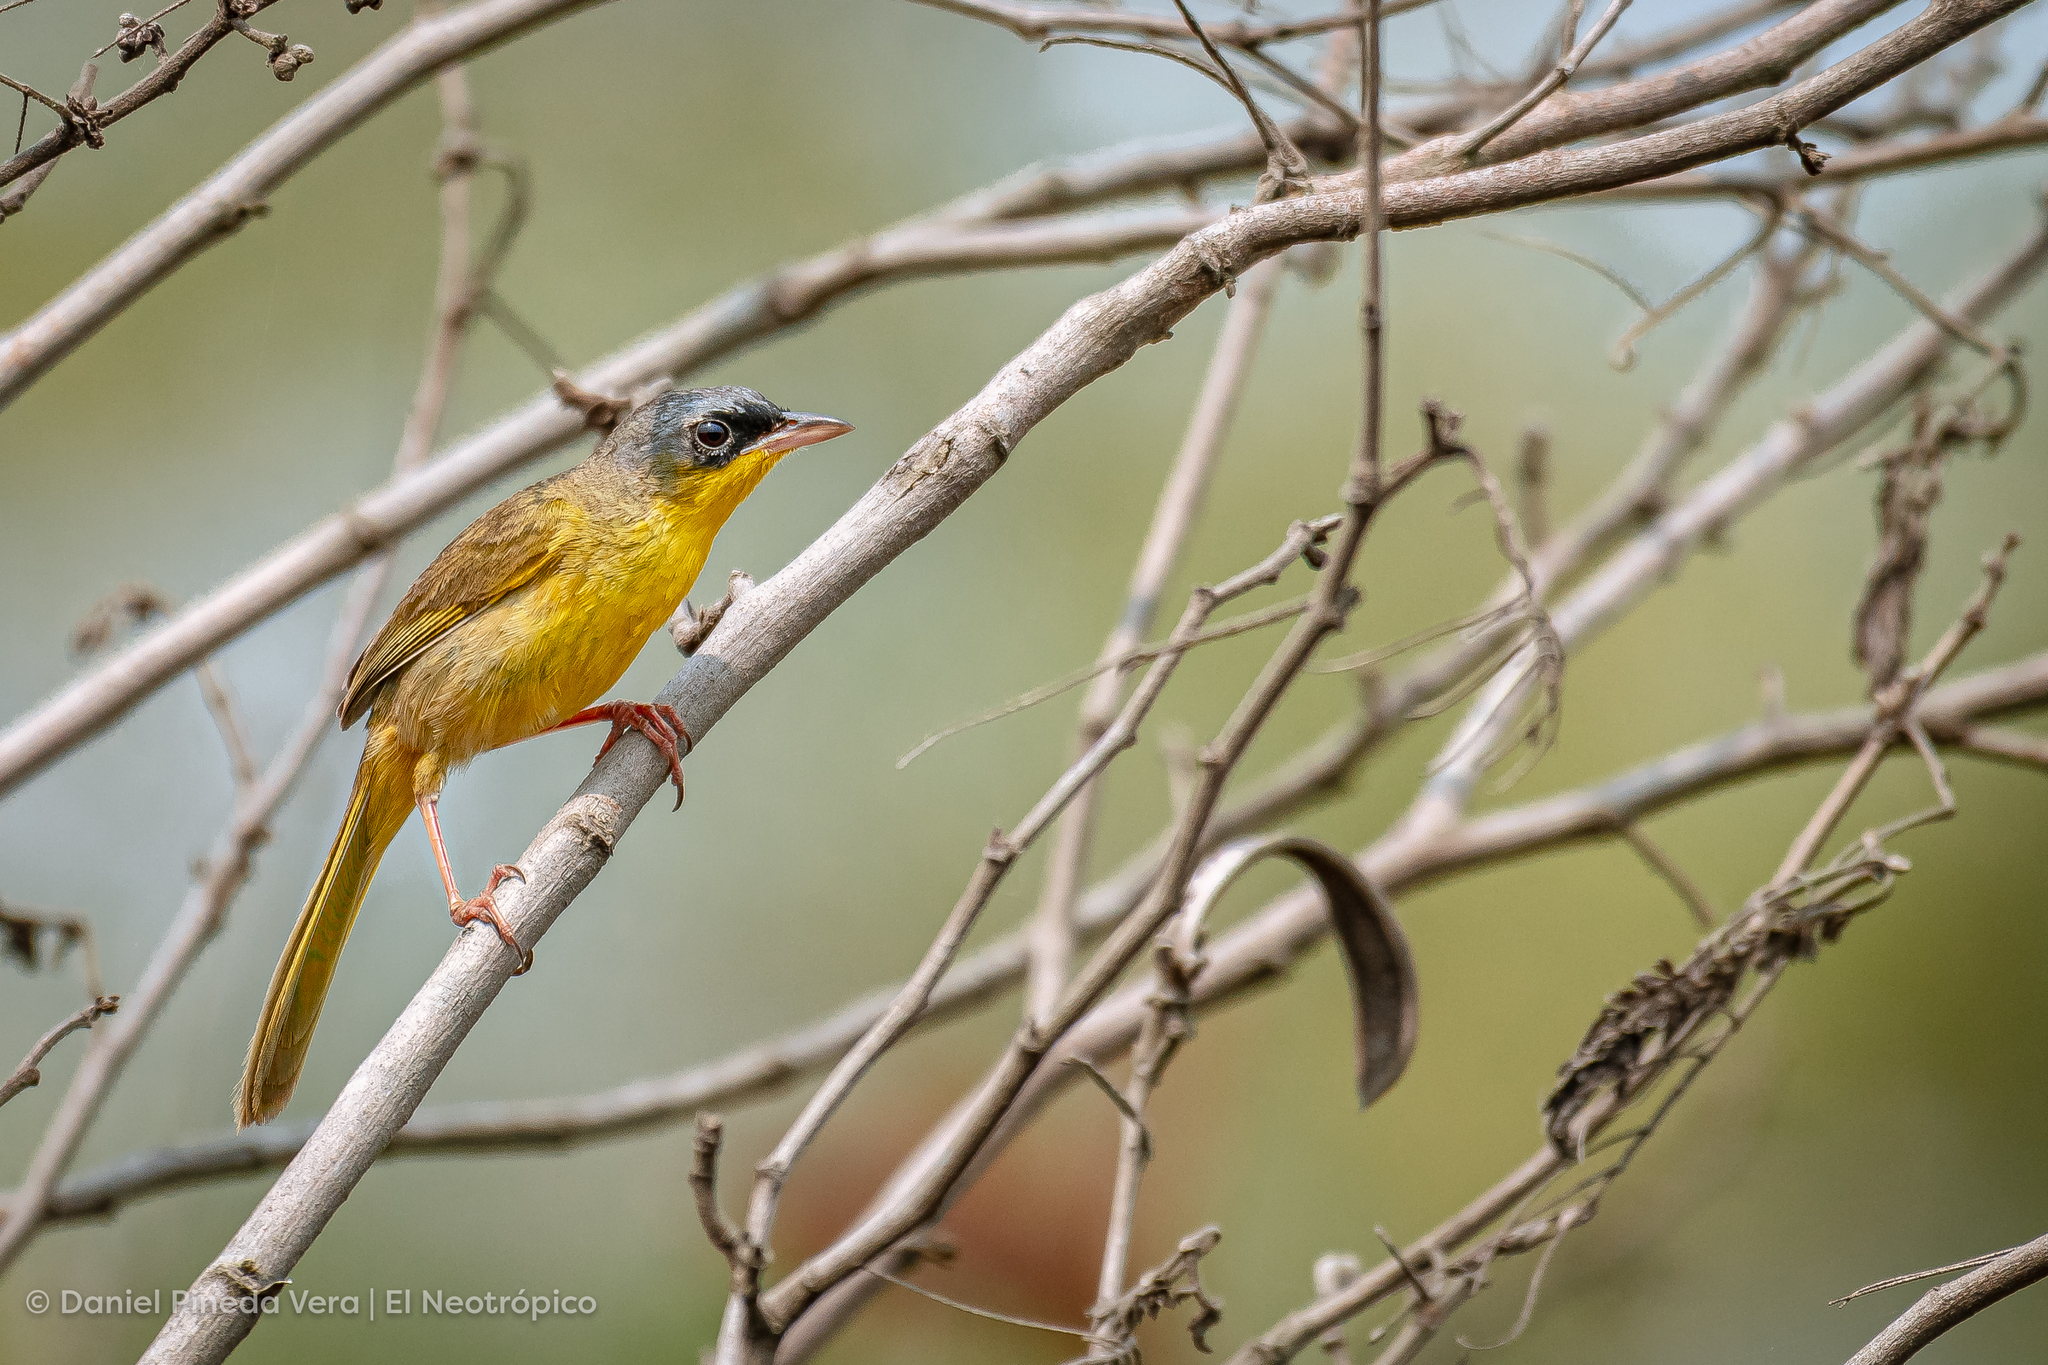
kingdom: Animalia
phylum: Chordata
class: Aves
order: Passeriformes
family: Parulidae
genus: Geothlypis
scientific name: Geothlypis poliocephala
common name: Gray-crowned yellowthroat
